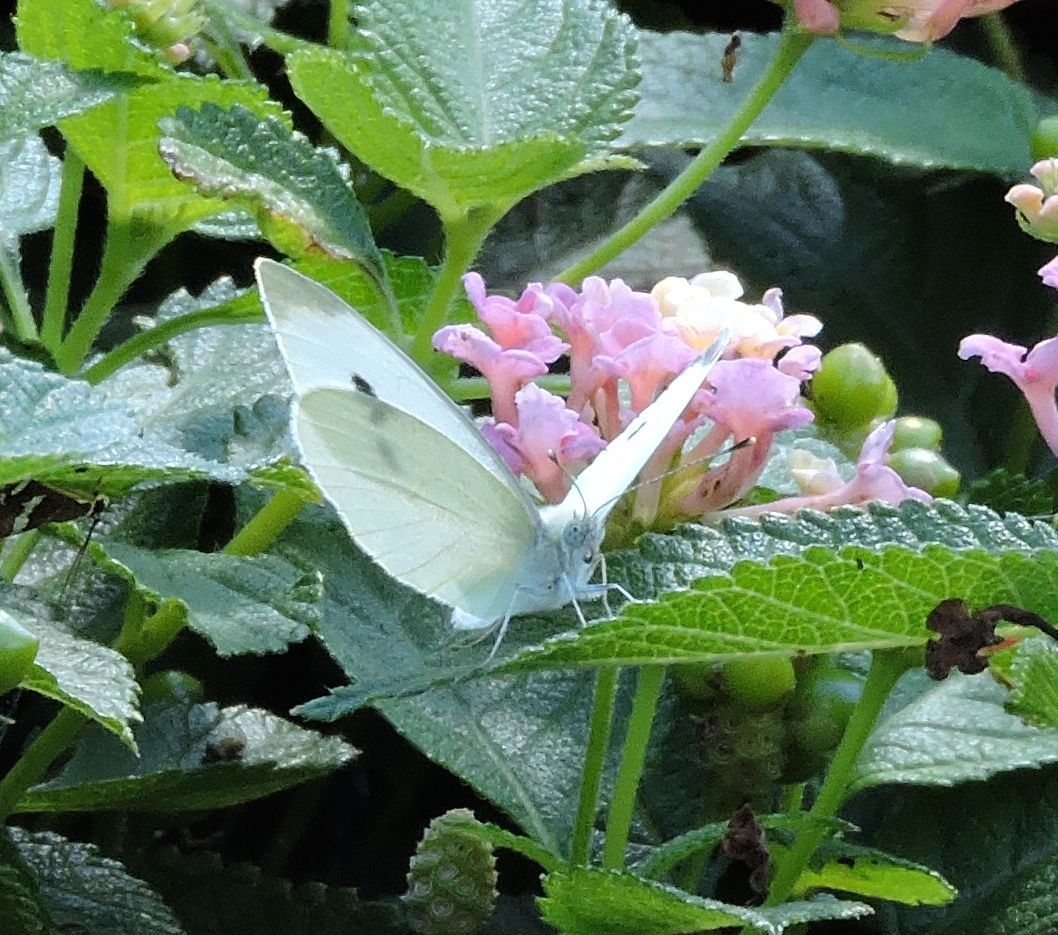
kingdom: Animalia
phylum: Arthropoda
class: Insecta
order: Lepidoptera
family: Pieridae
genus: Pieris
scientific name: Pieris rapae
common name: Small white
